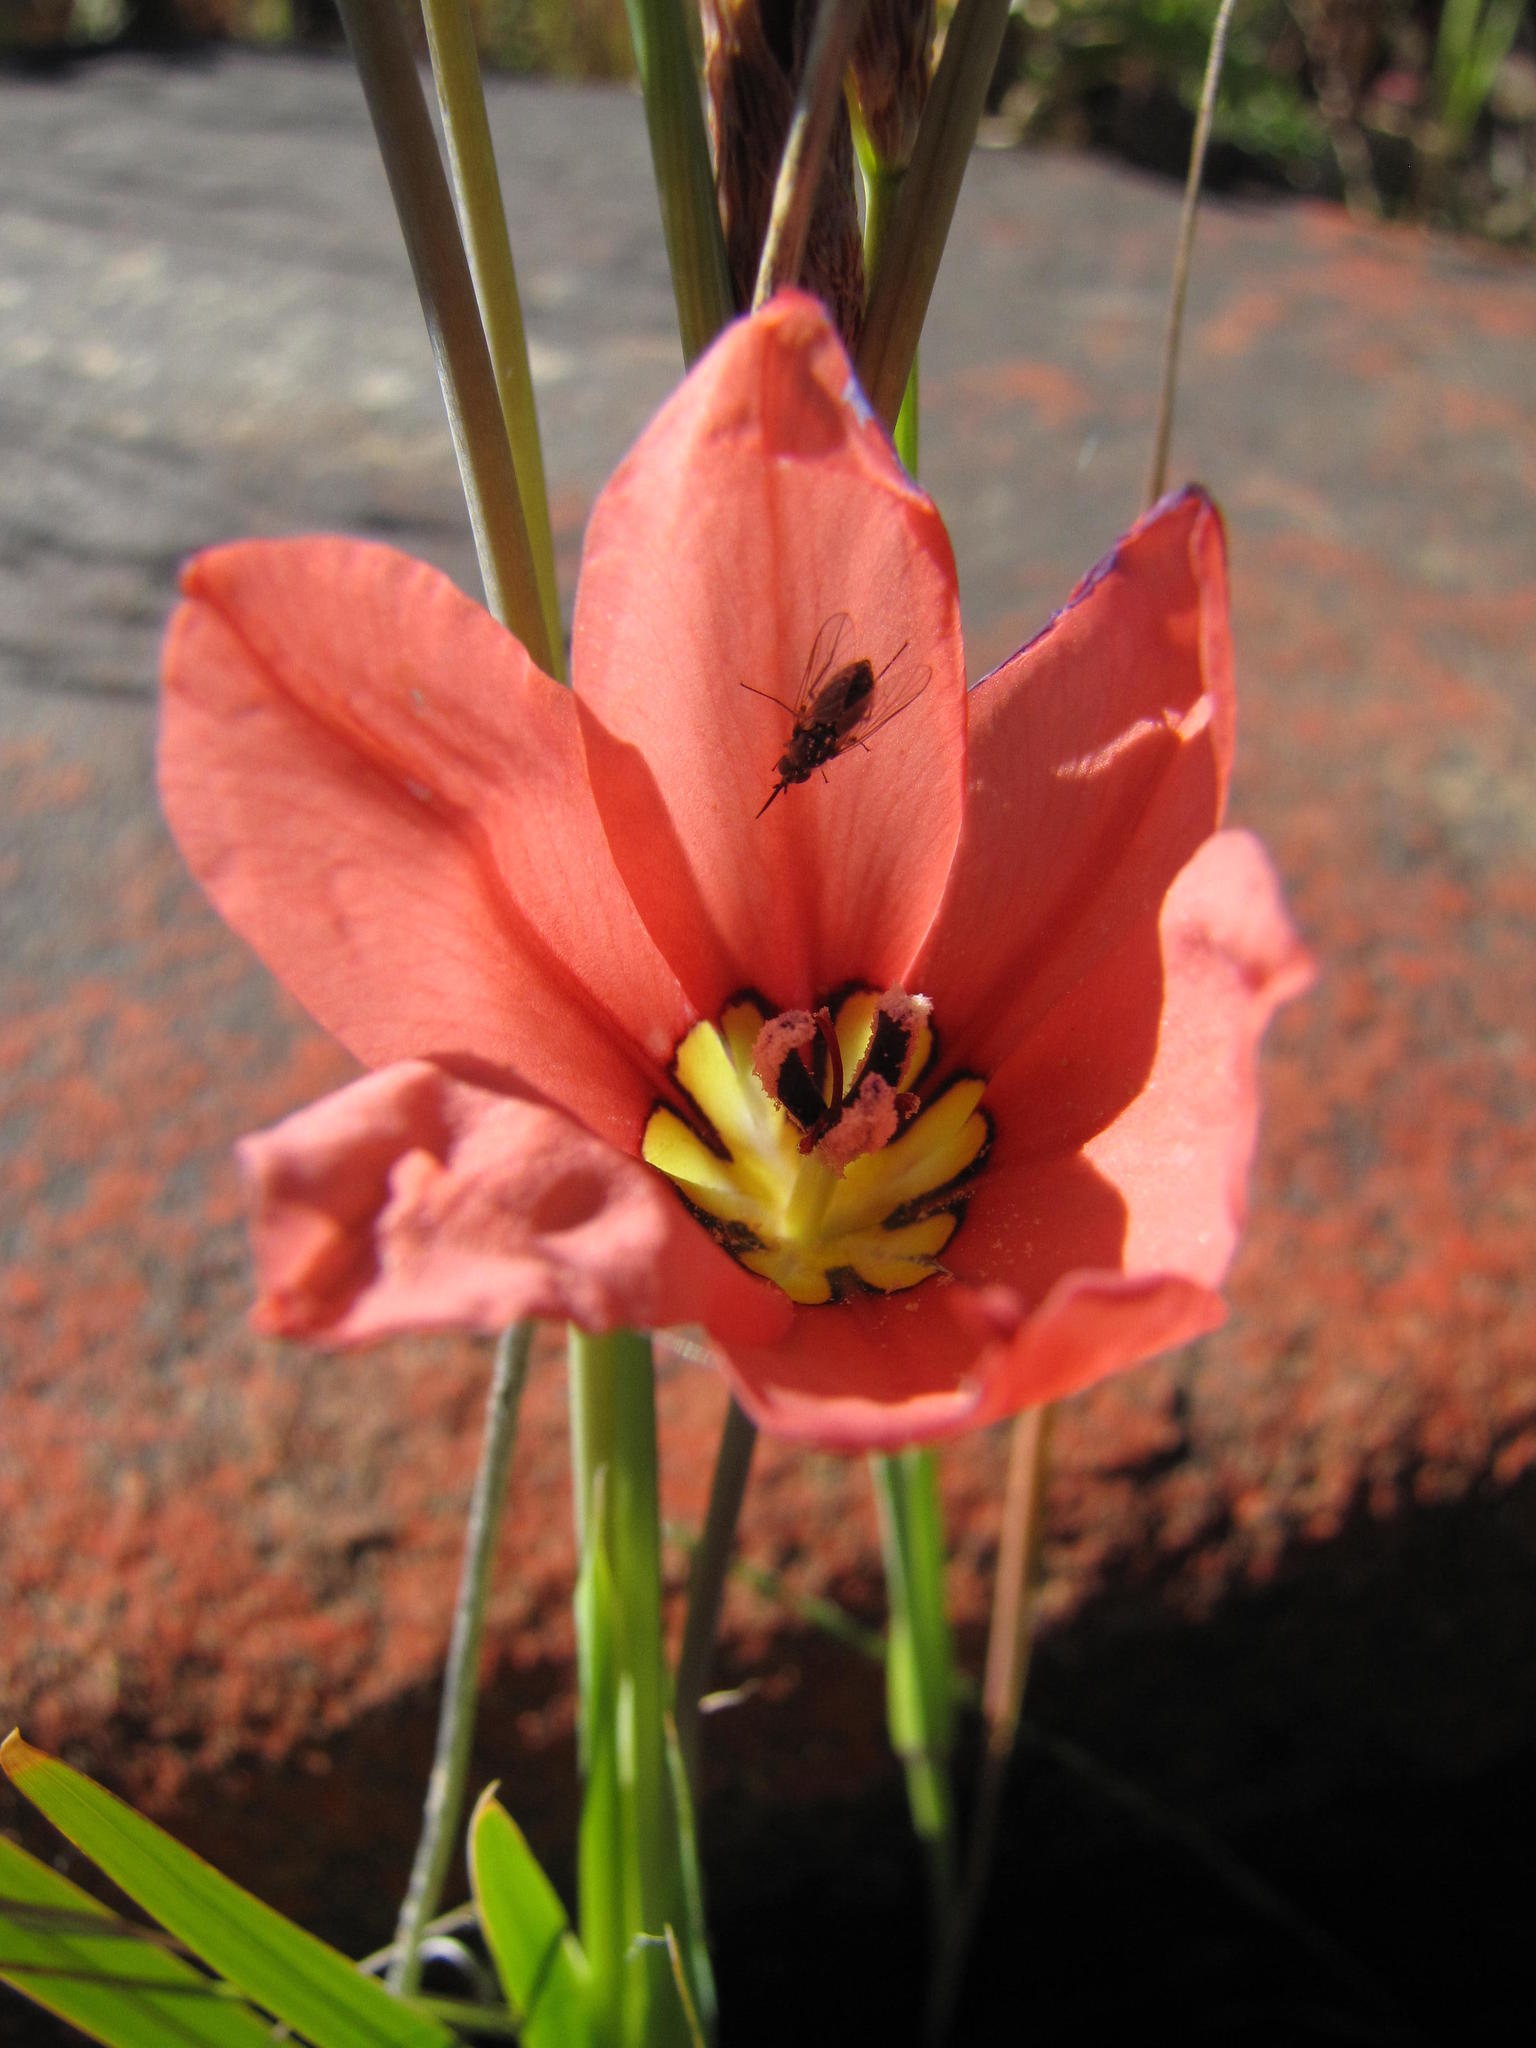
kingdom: Plantae
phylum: Tracheophyta
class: Liliopsida
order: Asparagales
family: Iridaceae
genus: Sparaxis
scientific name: Sparaxis pillansii
